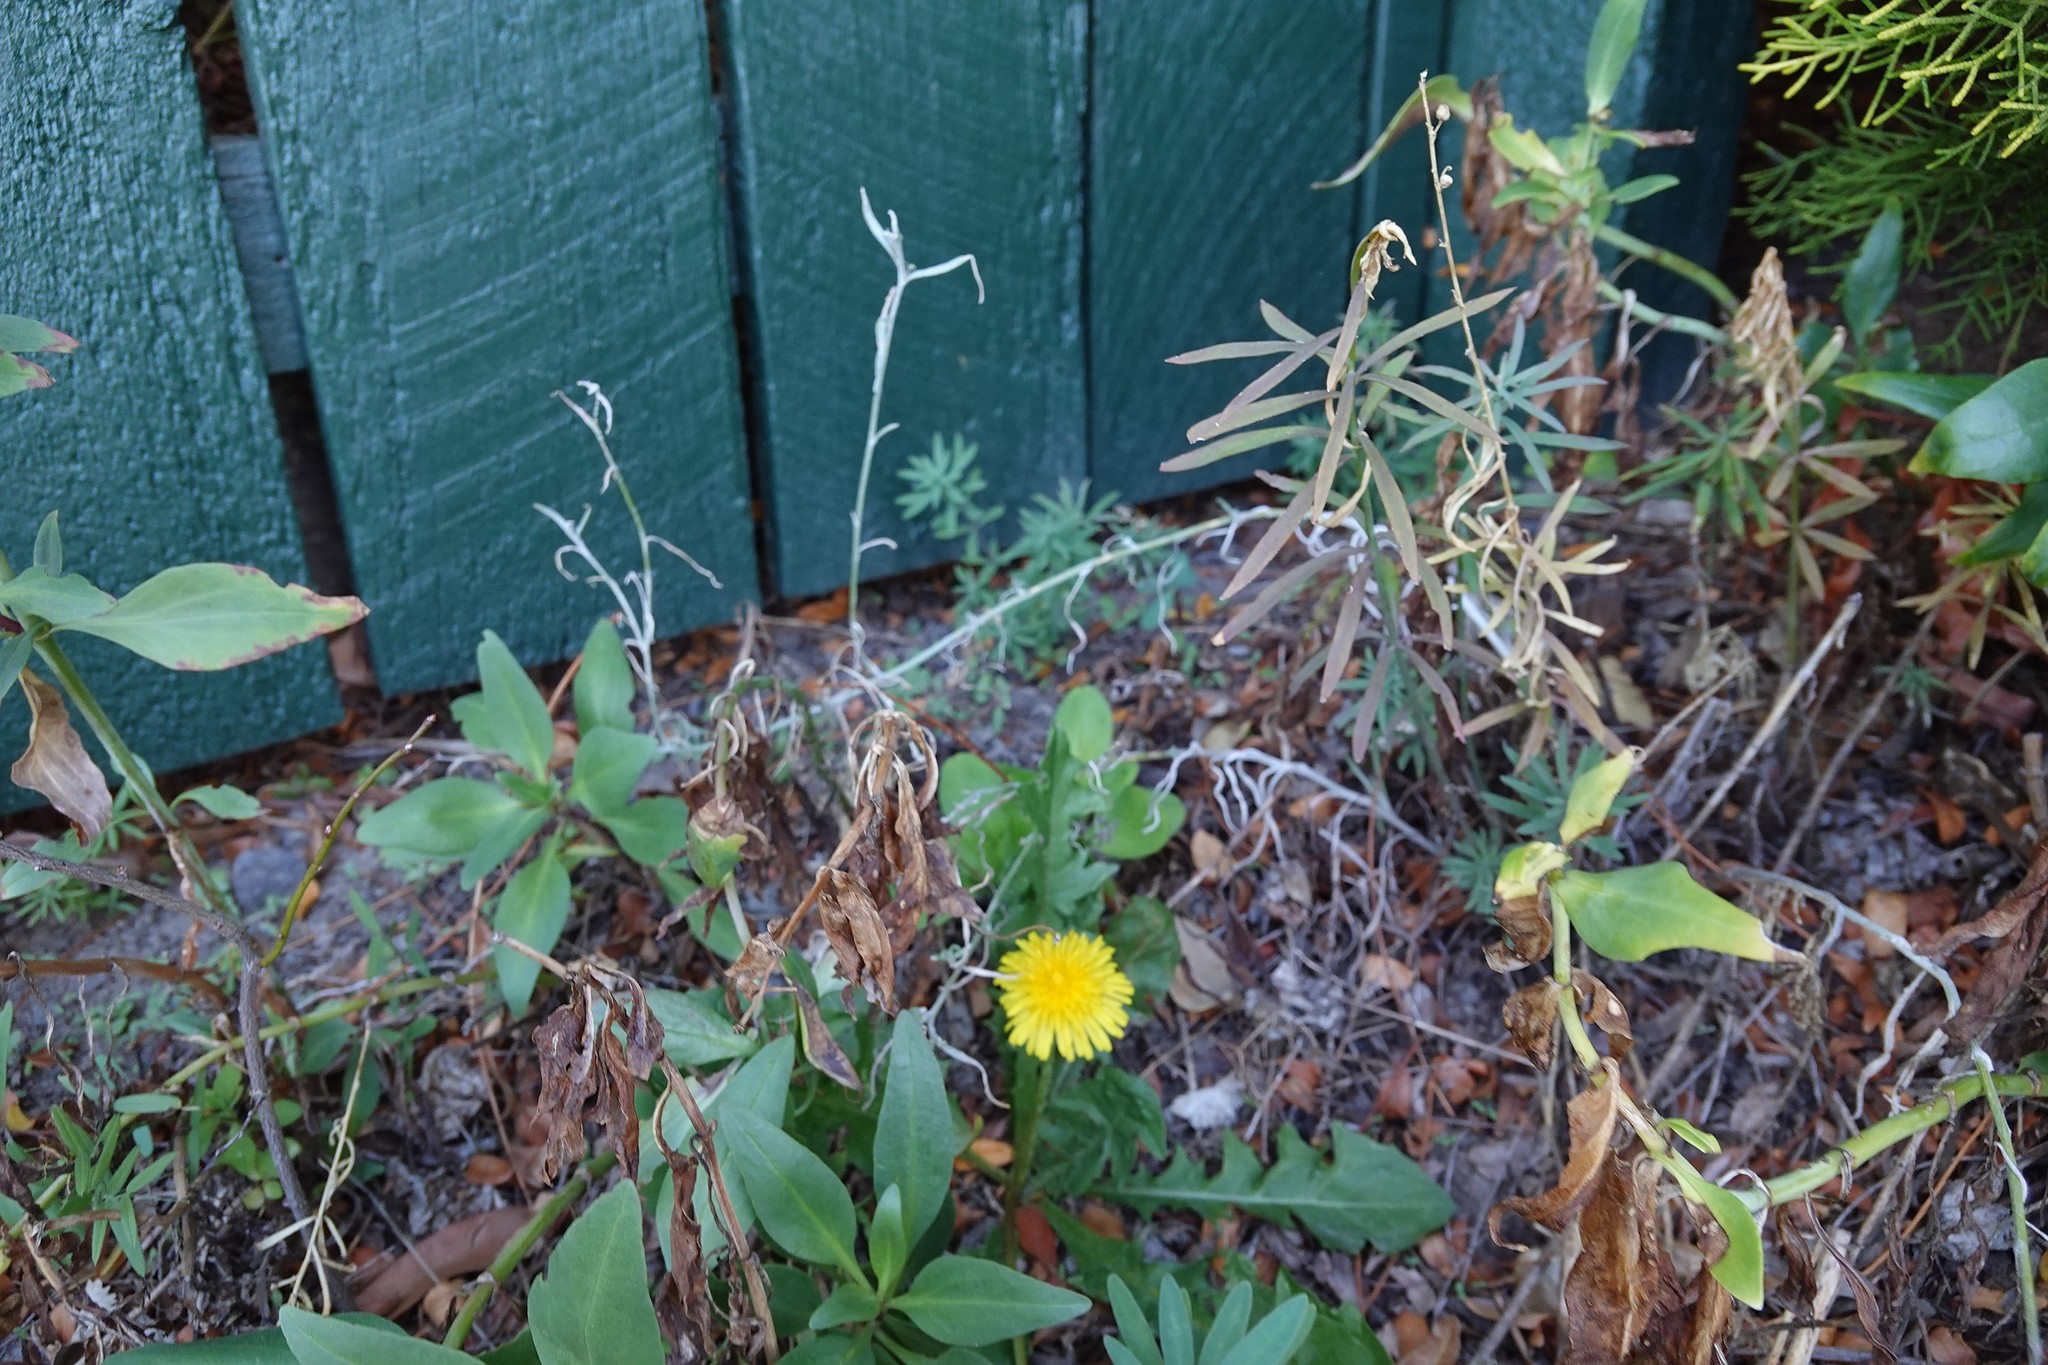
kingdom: Plantae
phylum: Tracheophyta
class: Magnoliopsida
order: Dipsacales
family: Caprifoliaceae
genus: Centranthus
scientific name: Centranthus ruber
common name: Red valerian
